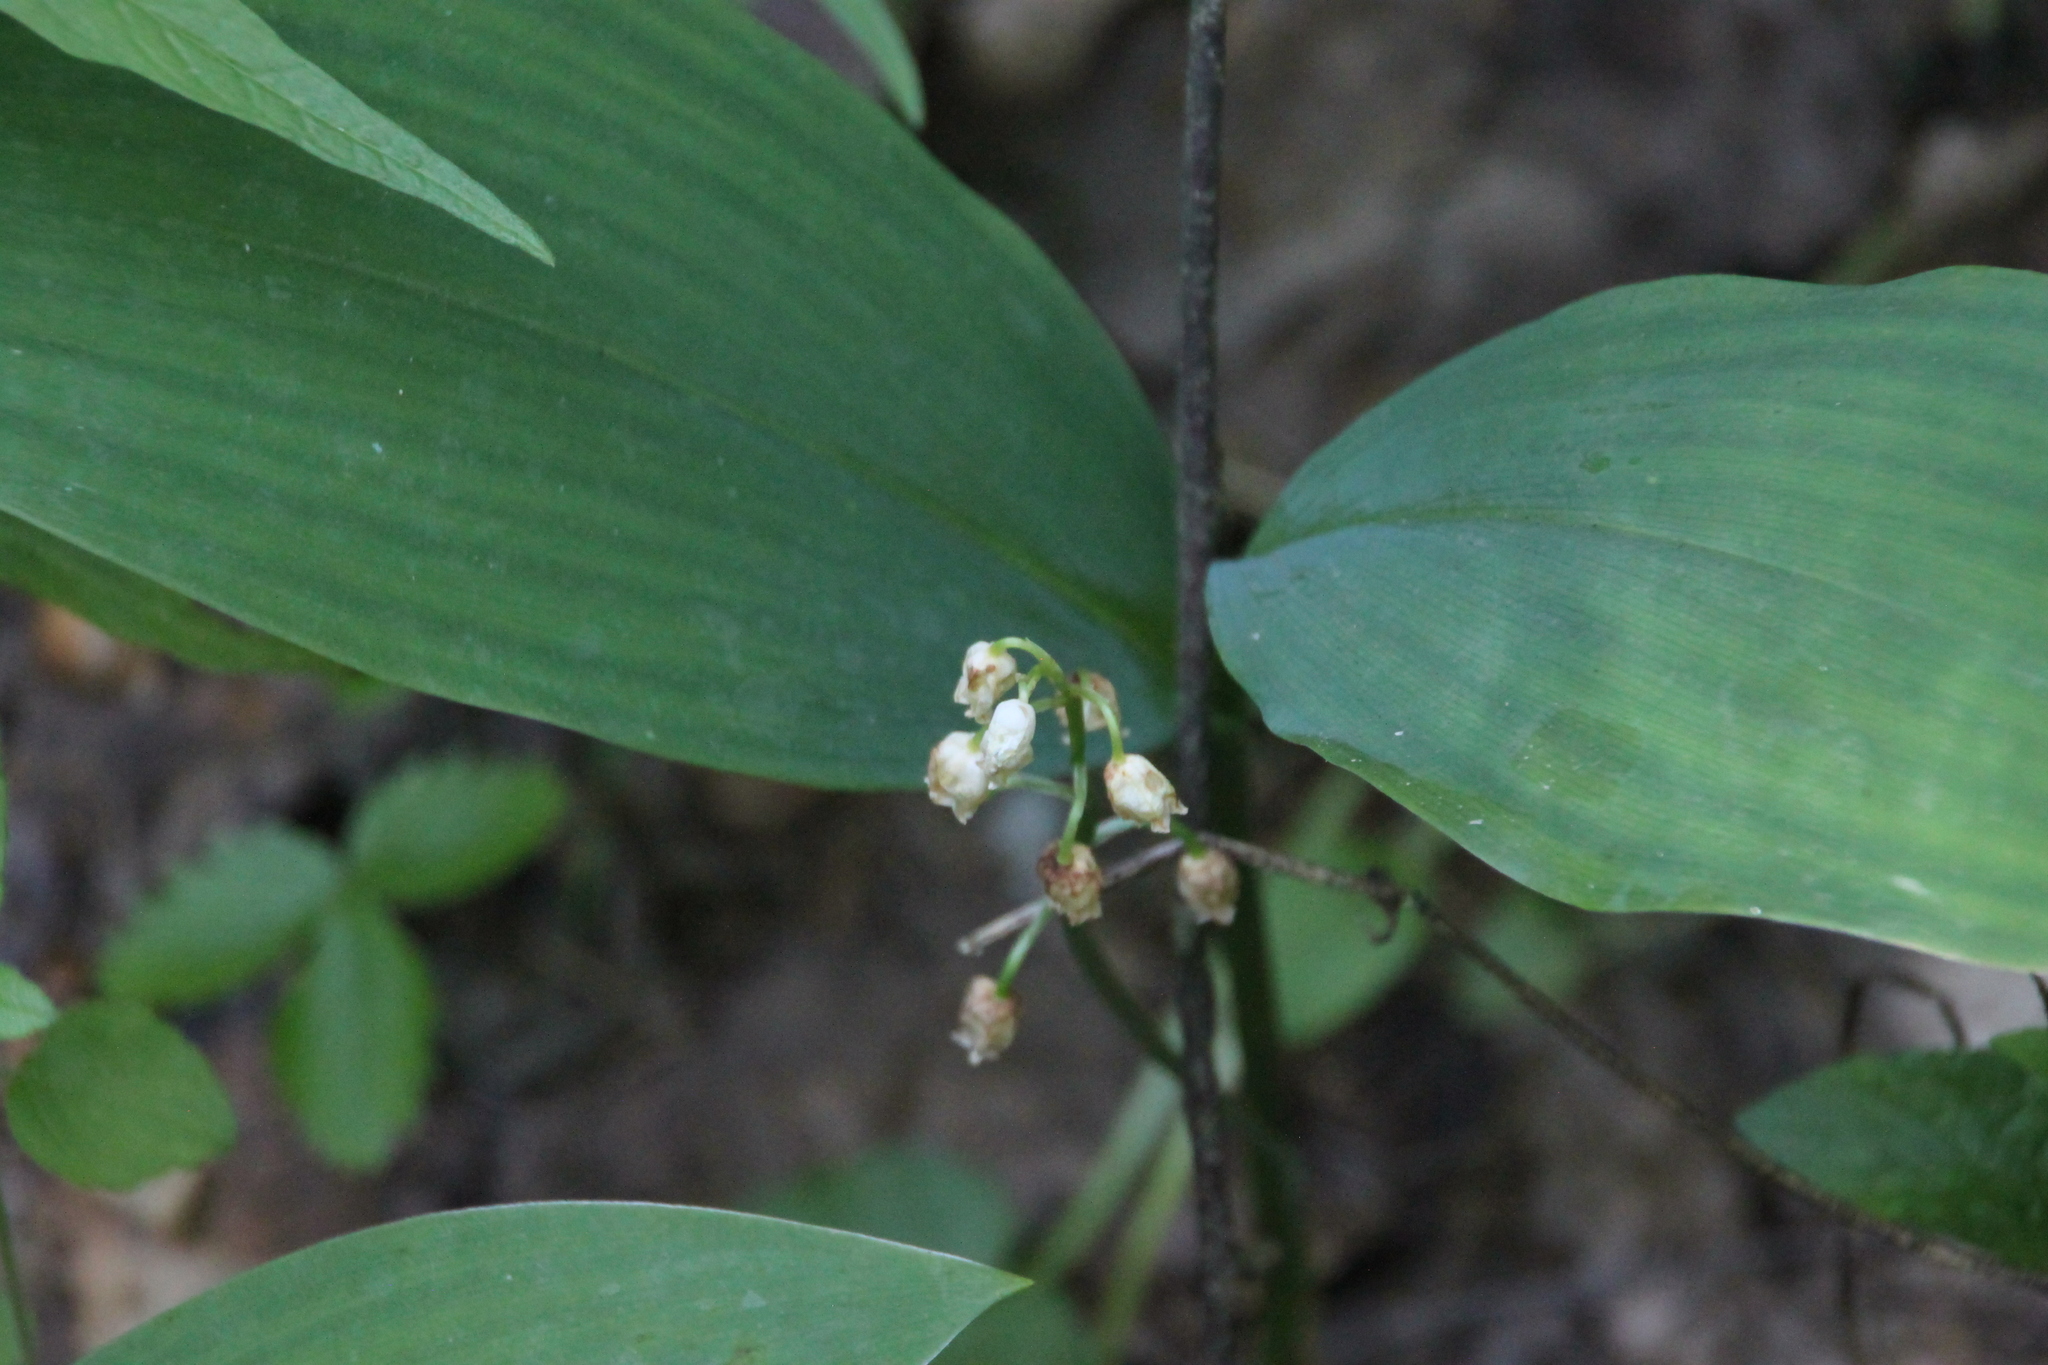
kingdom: Plantae
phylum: Tracheophyta
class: Liliopsida
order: Asparagales
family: Asparagaceae
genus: Convallaria
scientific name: Convallaria majalis
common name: Lily-of-the-valley
